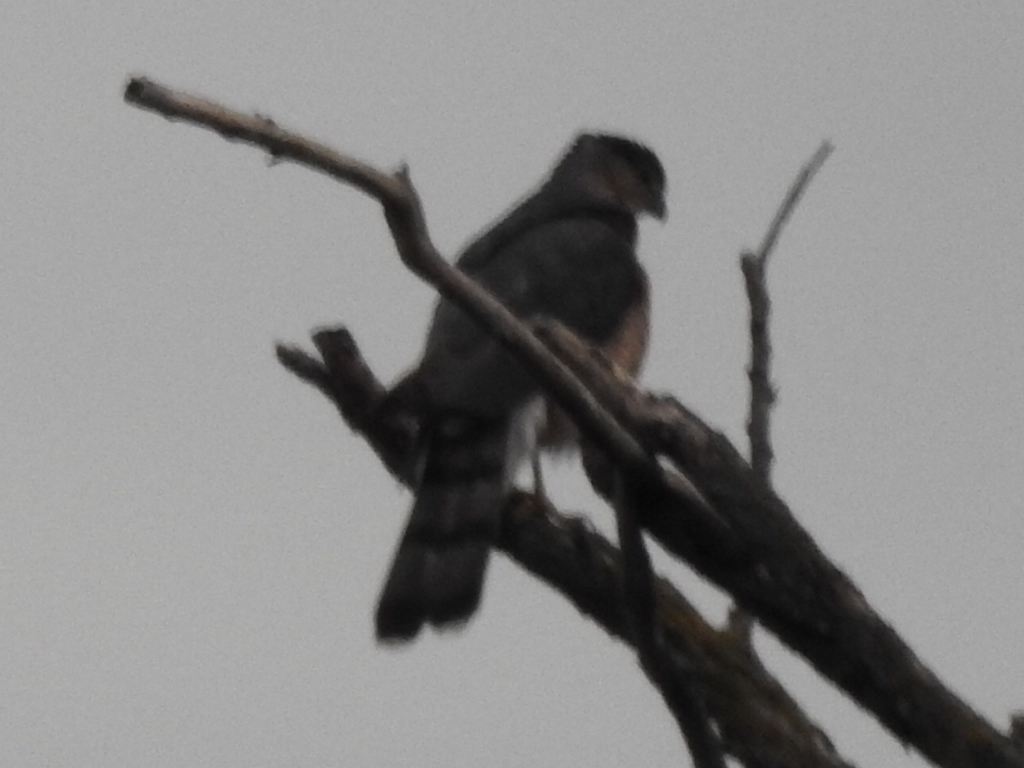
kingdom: Animalia
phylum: Chordata
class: Aves
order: Accipitriformes
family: Accipitridae
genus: Accipiter
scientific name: Accipiter cooperii
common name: Cooper's hawk
